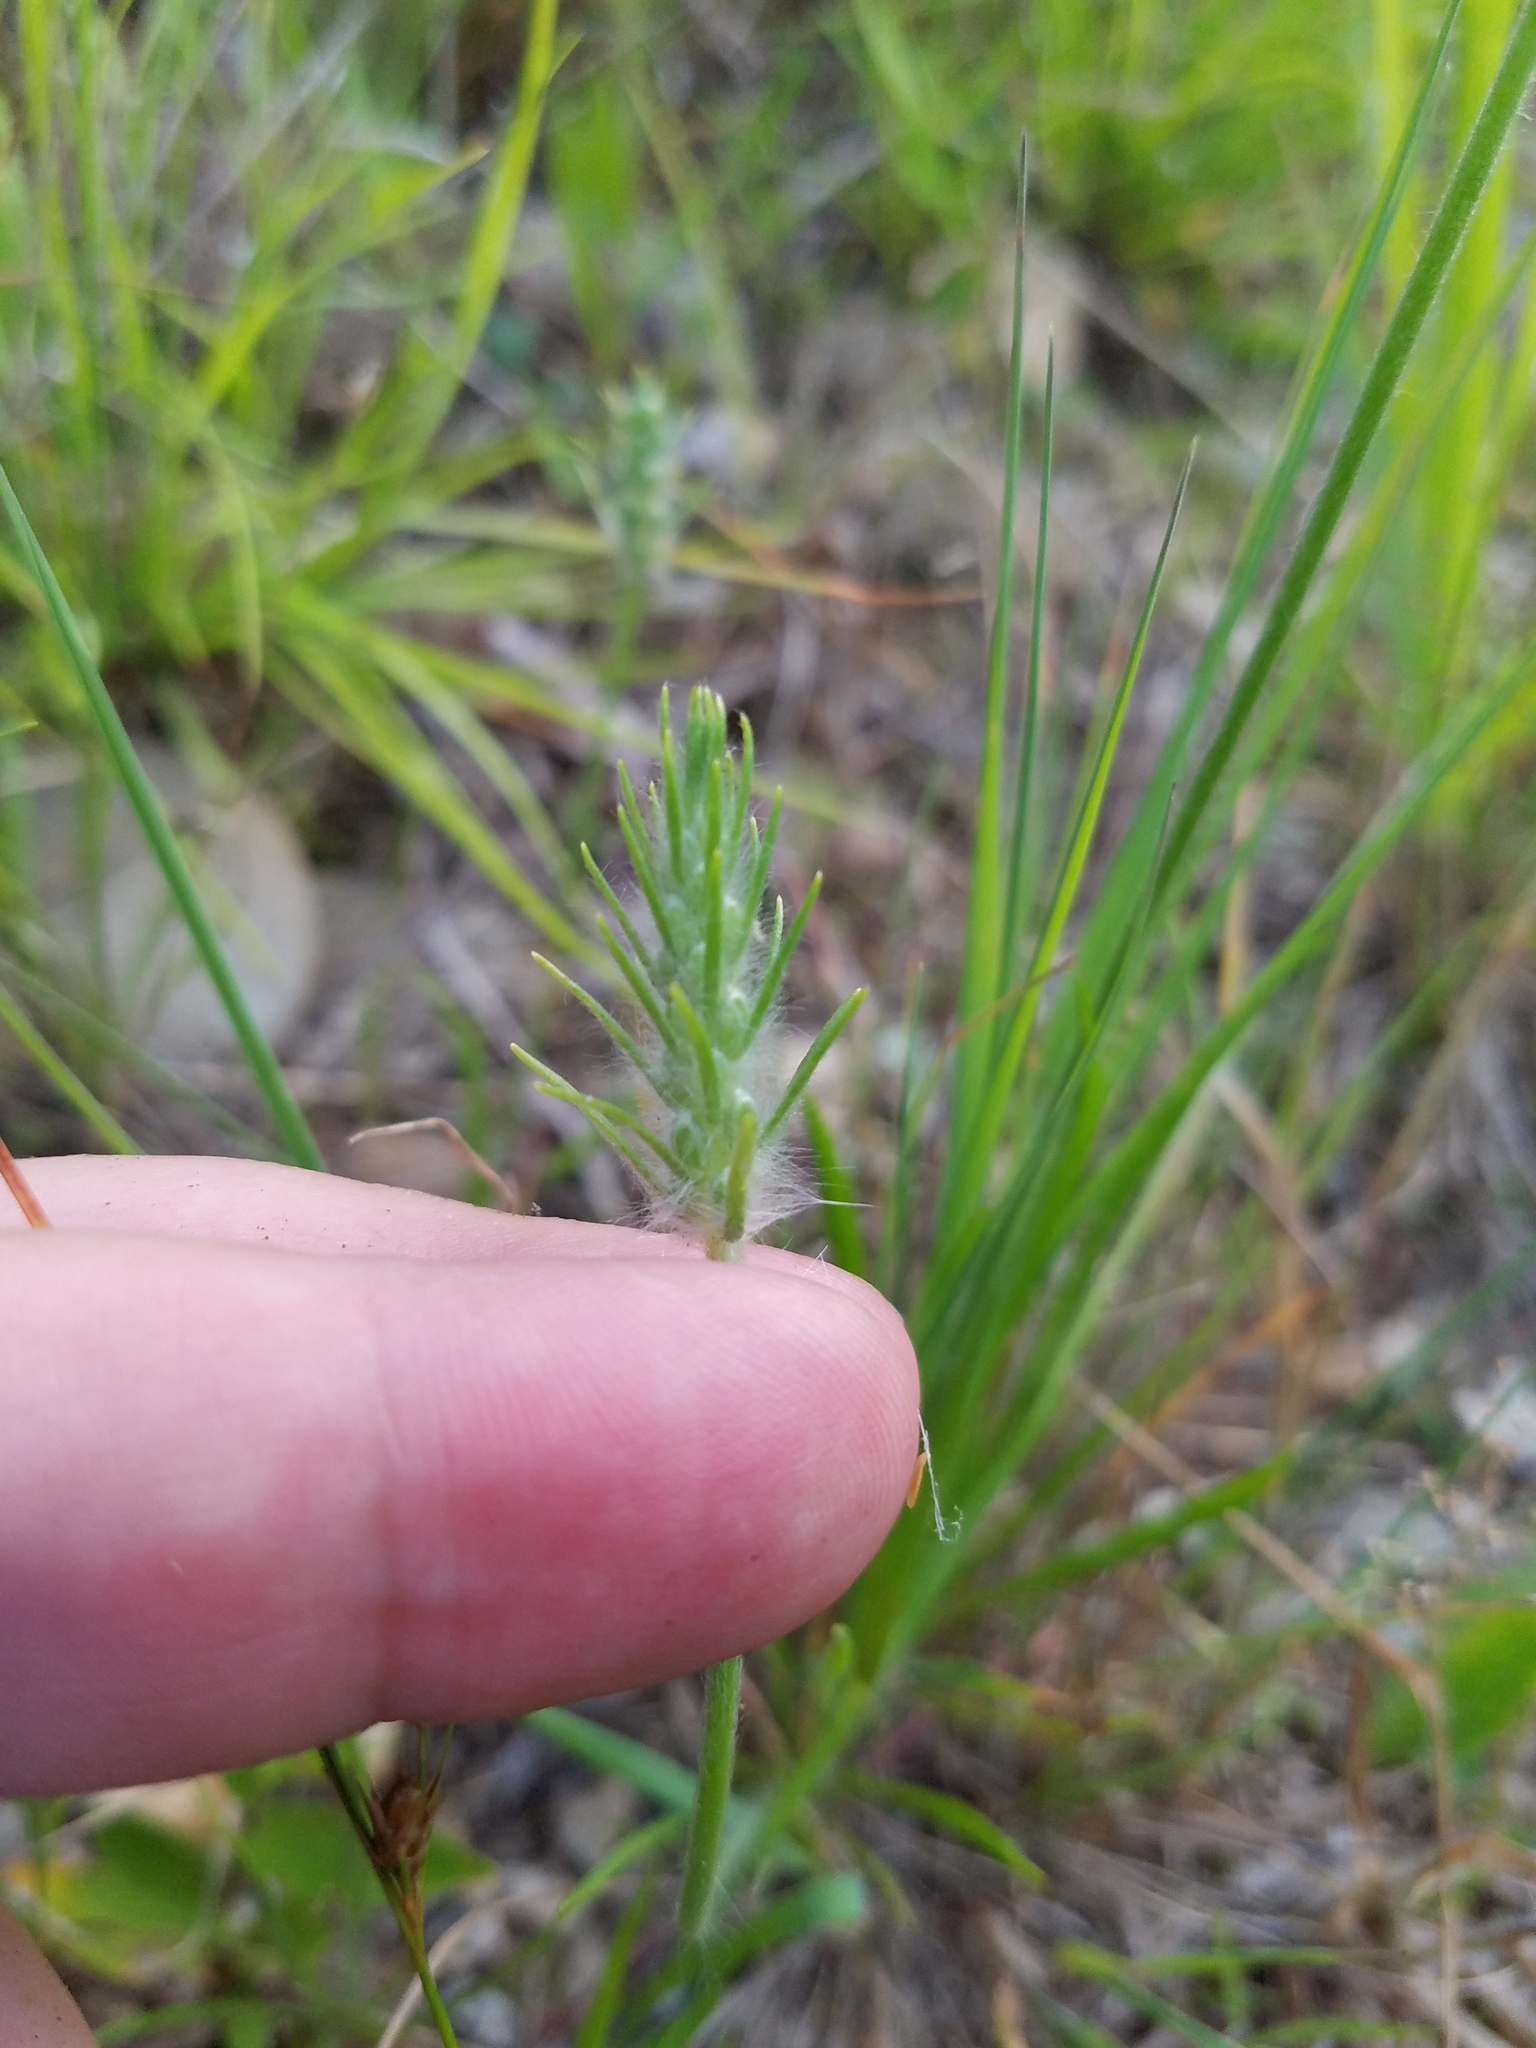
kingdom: Plantae
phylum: Tracheophyta
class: Magnoliopsida
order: Lamiales
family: Plantaginaceae
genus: Plantago
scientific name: Plantago aristata
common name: Bracted plantain
